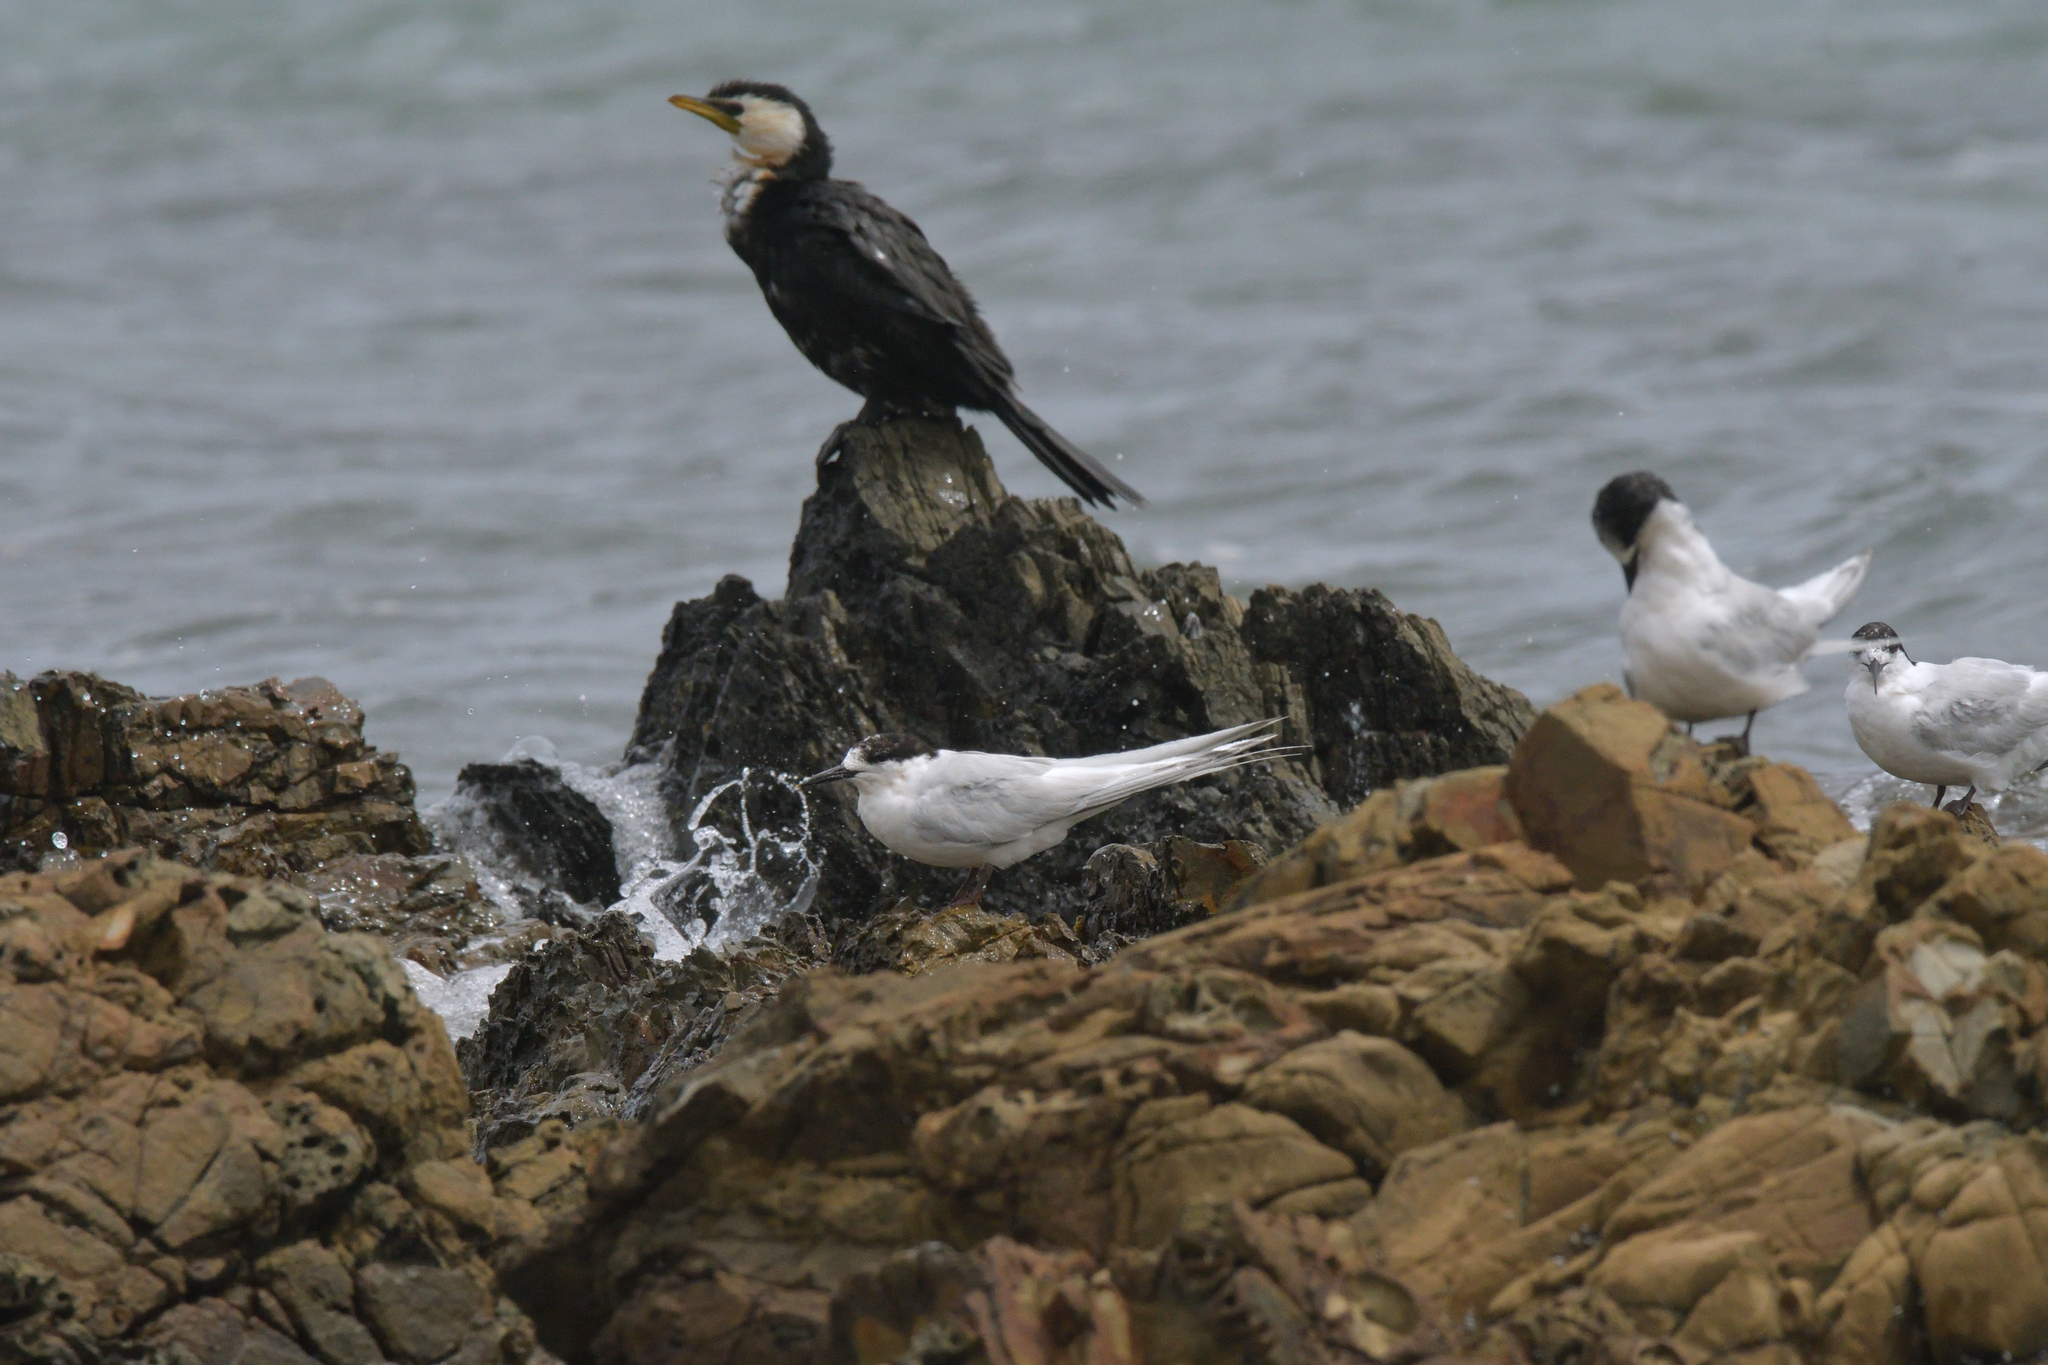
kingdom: Animalia
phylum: Chordata
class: Aves
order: Charadriiformes
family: Laridae
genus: Sterna
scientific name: Sterna striata
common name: White-fronted tern
